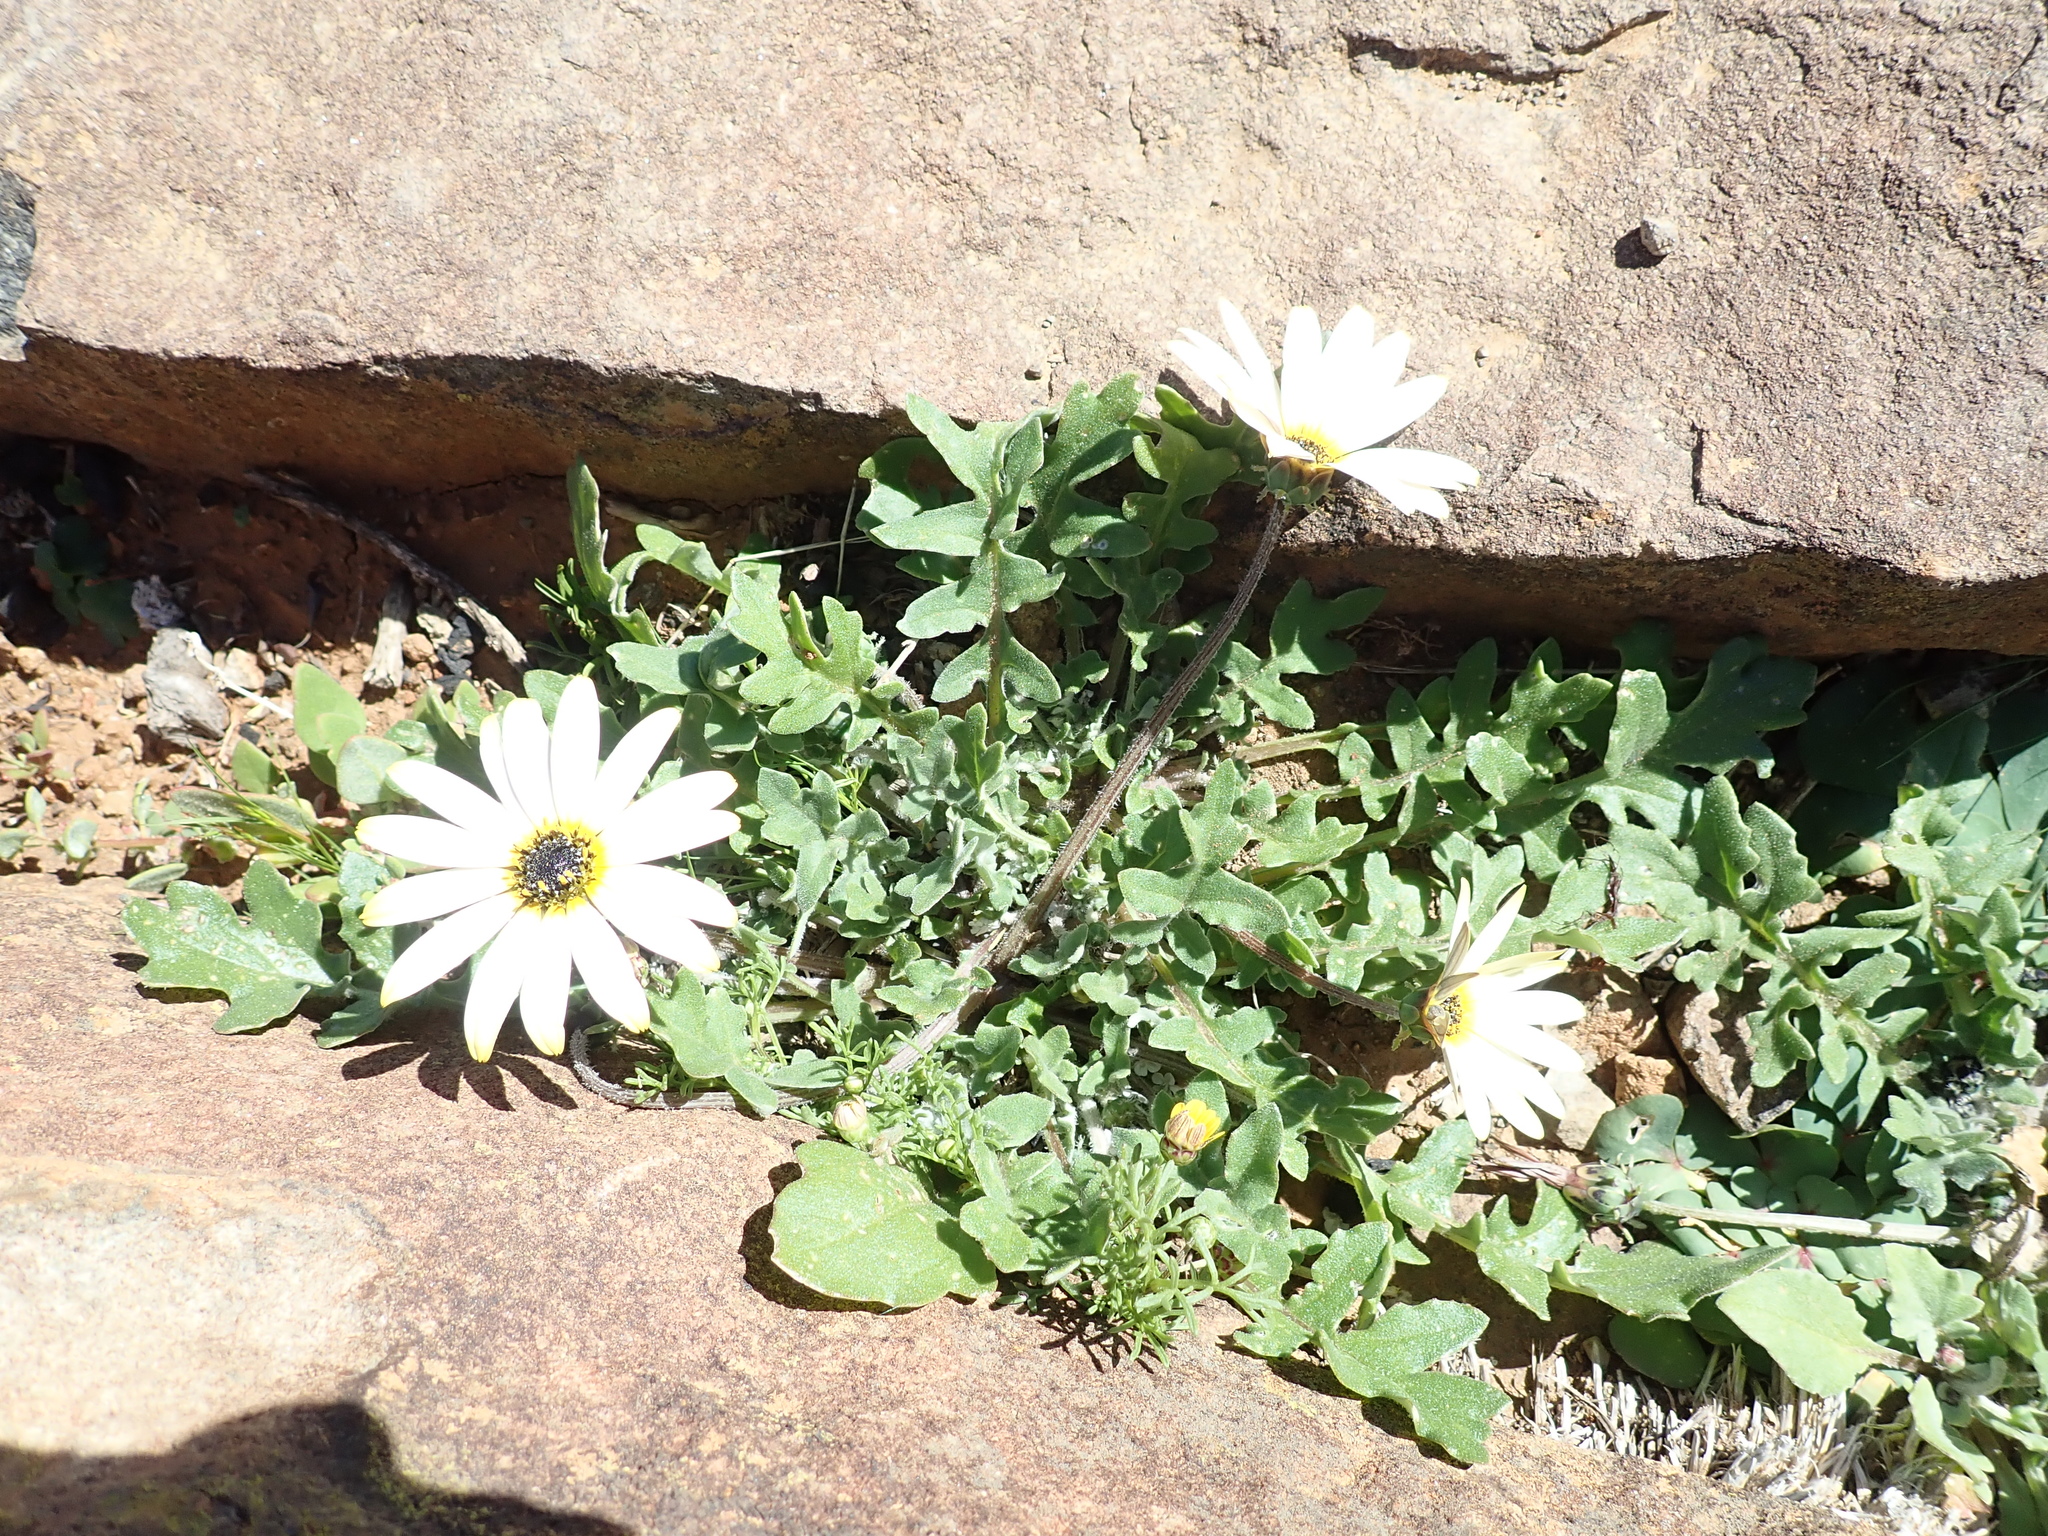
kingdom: Plantae
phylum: Tracheophyta
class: Magnoliopsida
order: Asterales
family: Asteraceae
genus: Arctotheca
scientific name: Arctotheca calendula
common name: Capeweed
